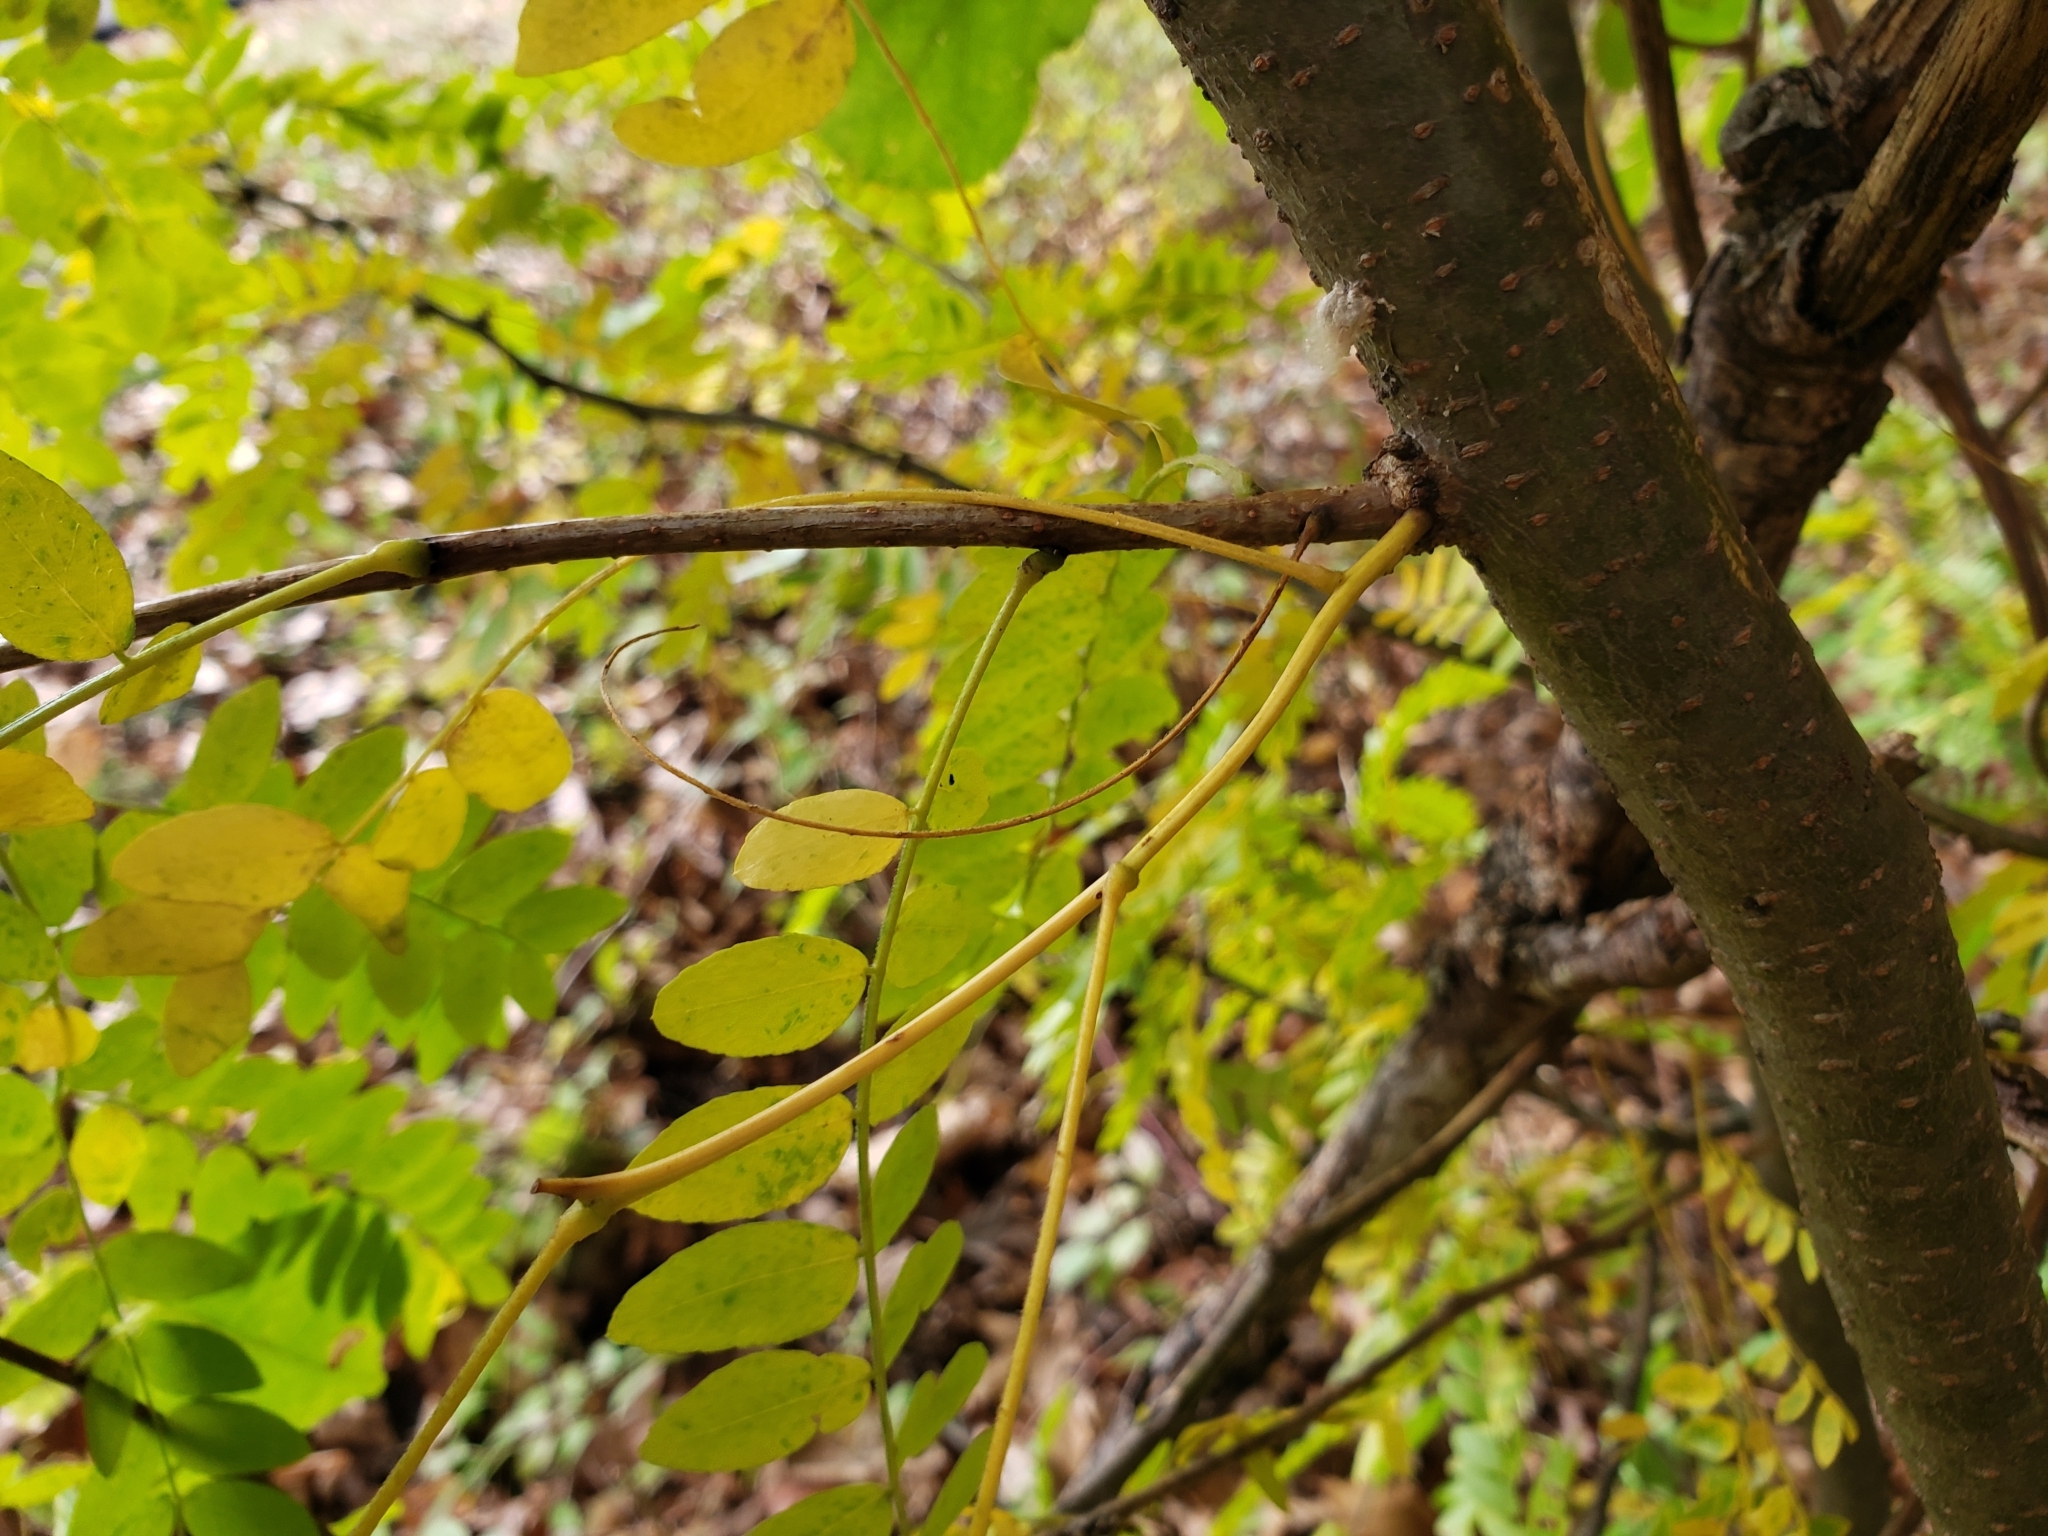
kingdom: Plantae
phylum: Tracheophyta
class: Magnoliopsida
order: Fabales
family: Fabaceae
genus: Gleditsia
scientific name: Gleditsia triacanthos
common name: Common honeylocust
